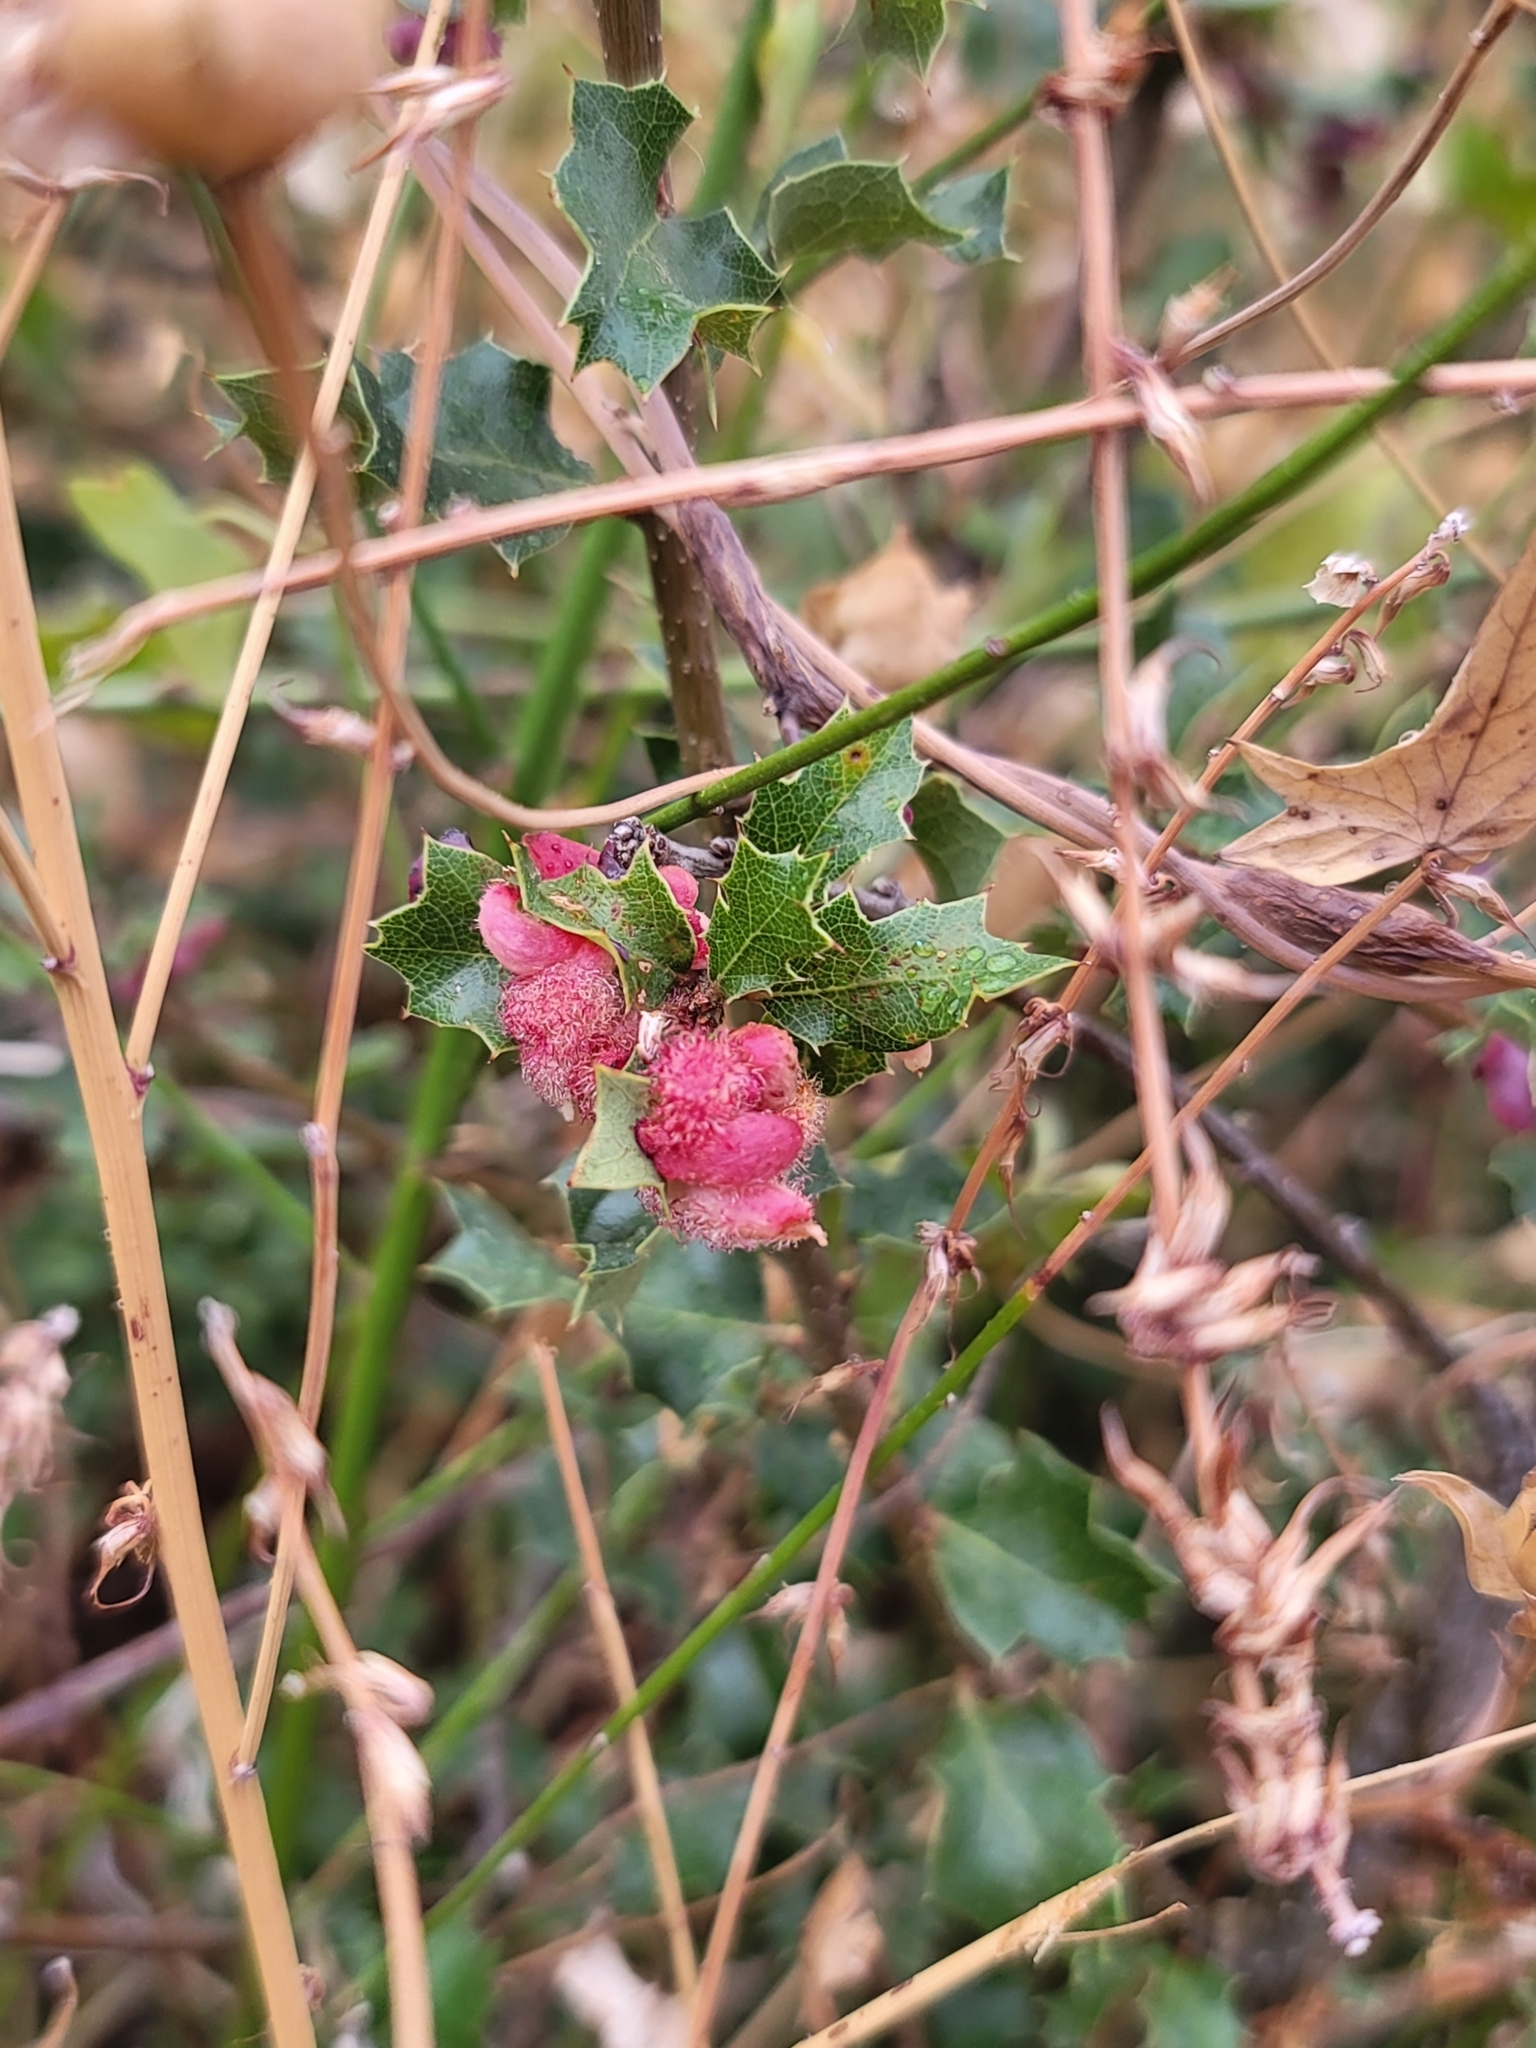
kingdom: Animalia
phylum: Arthropoda
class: Insecta
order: Hymenoptera
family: Cynipidae
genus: Andricus
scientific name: Andricus
